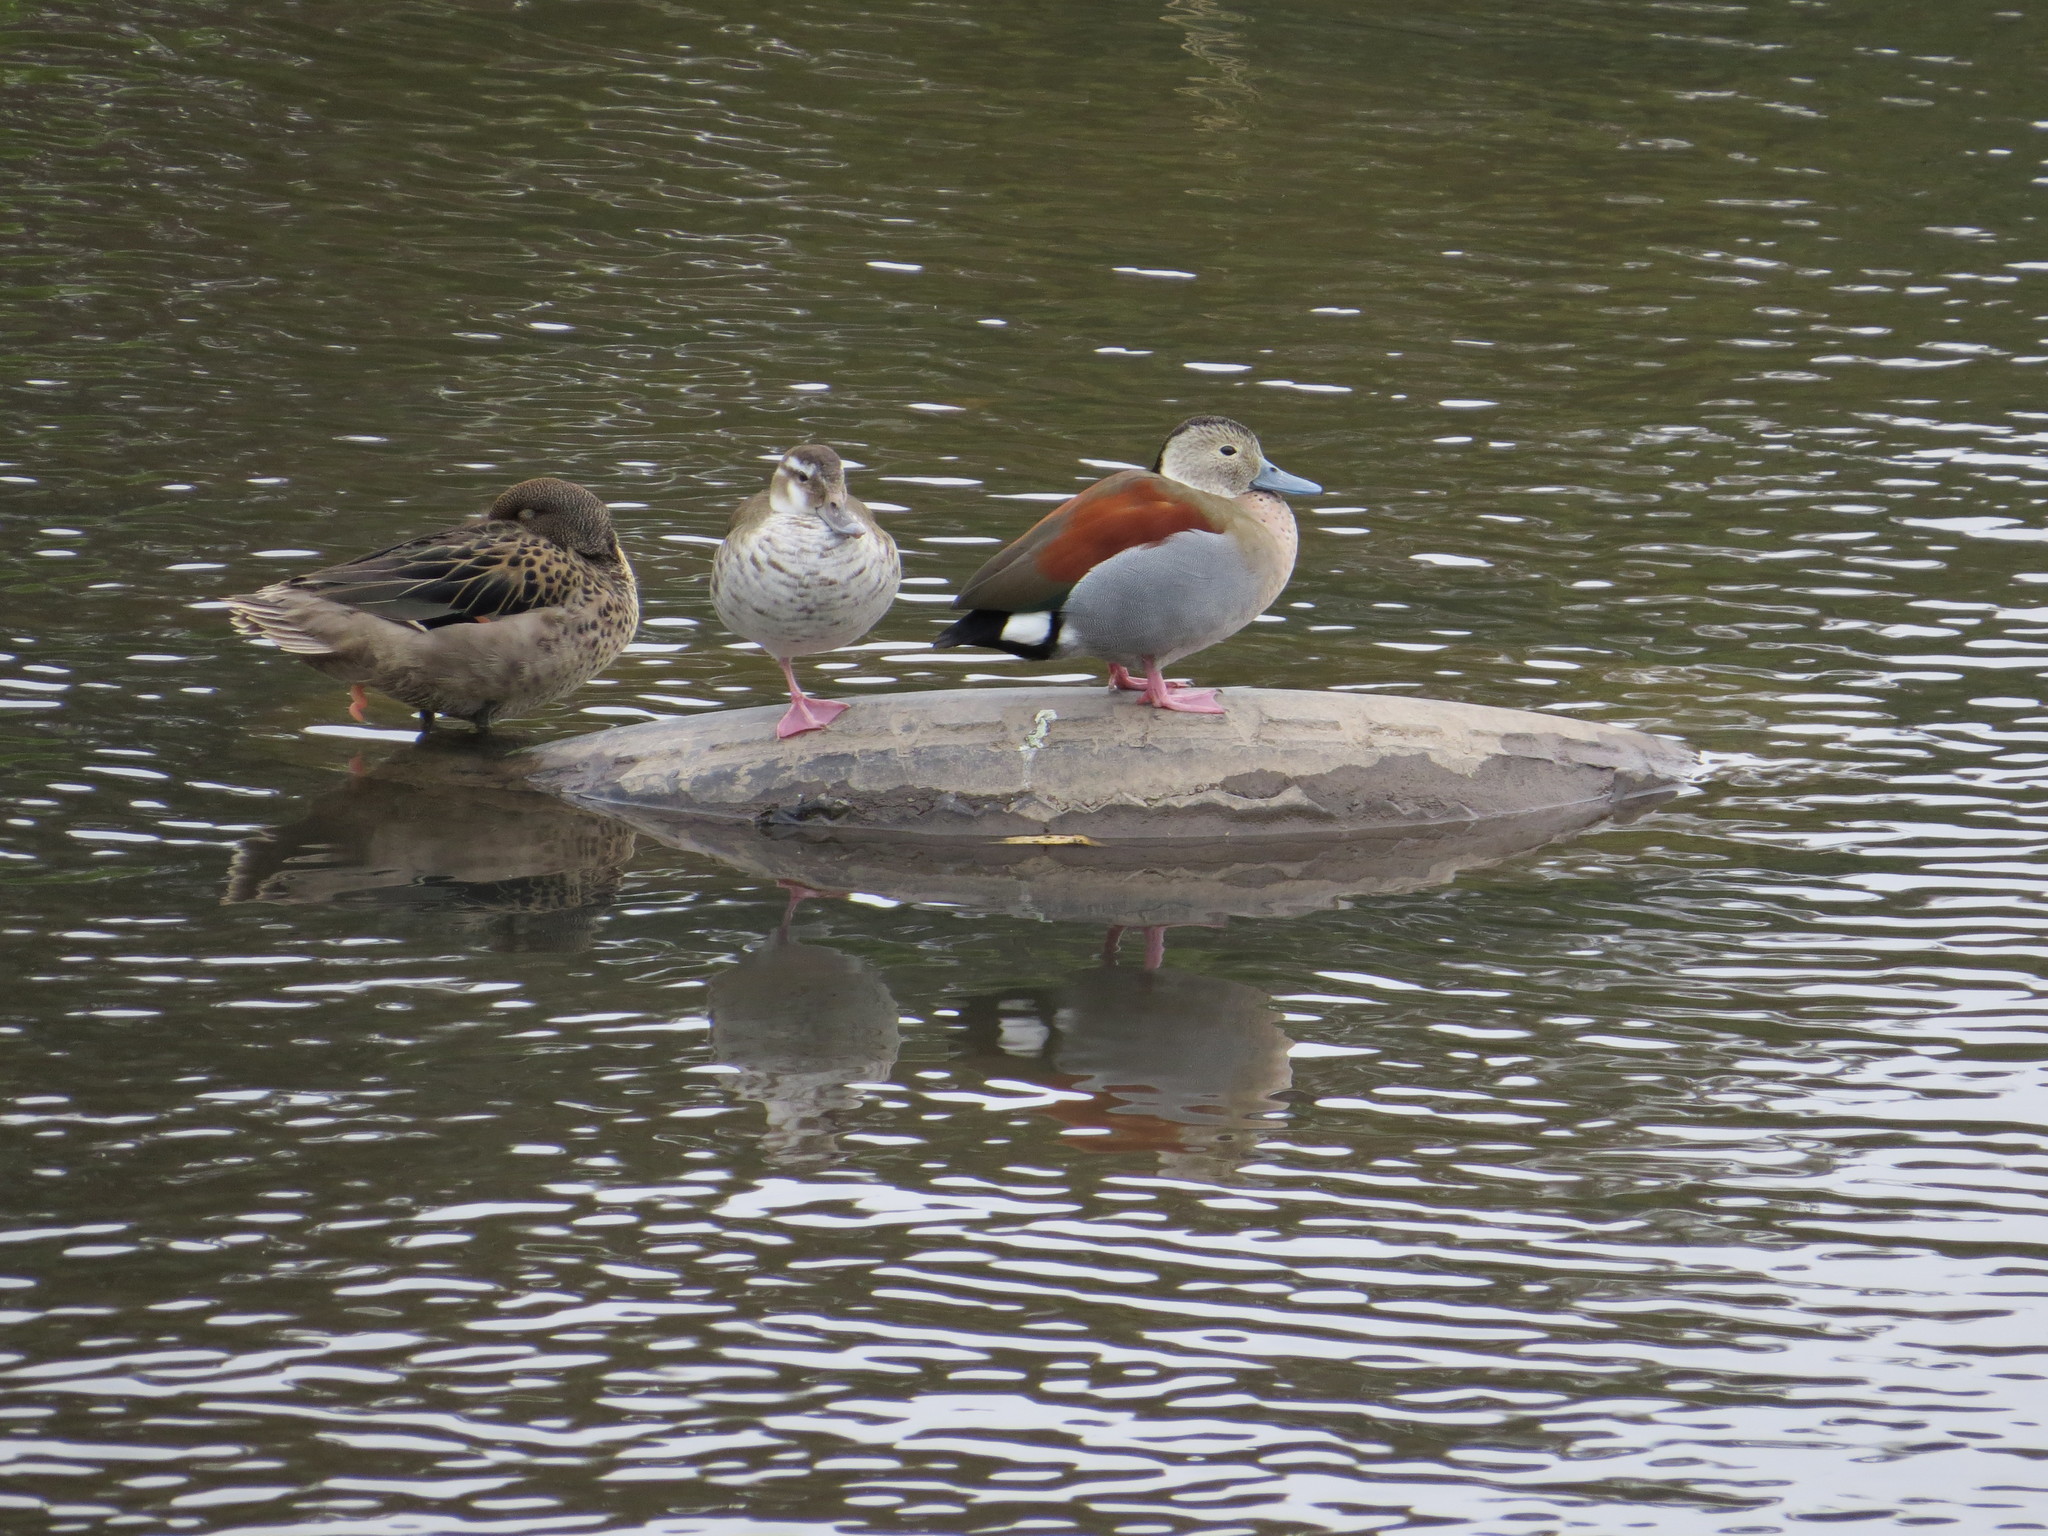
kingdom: Animalia
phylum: Chordata
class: Aves
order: Anseriformes
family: Anatidae
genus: Callonetta
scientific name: Callonetta leucophrys
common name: Ringed teal
